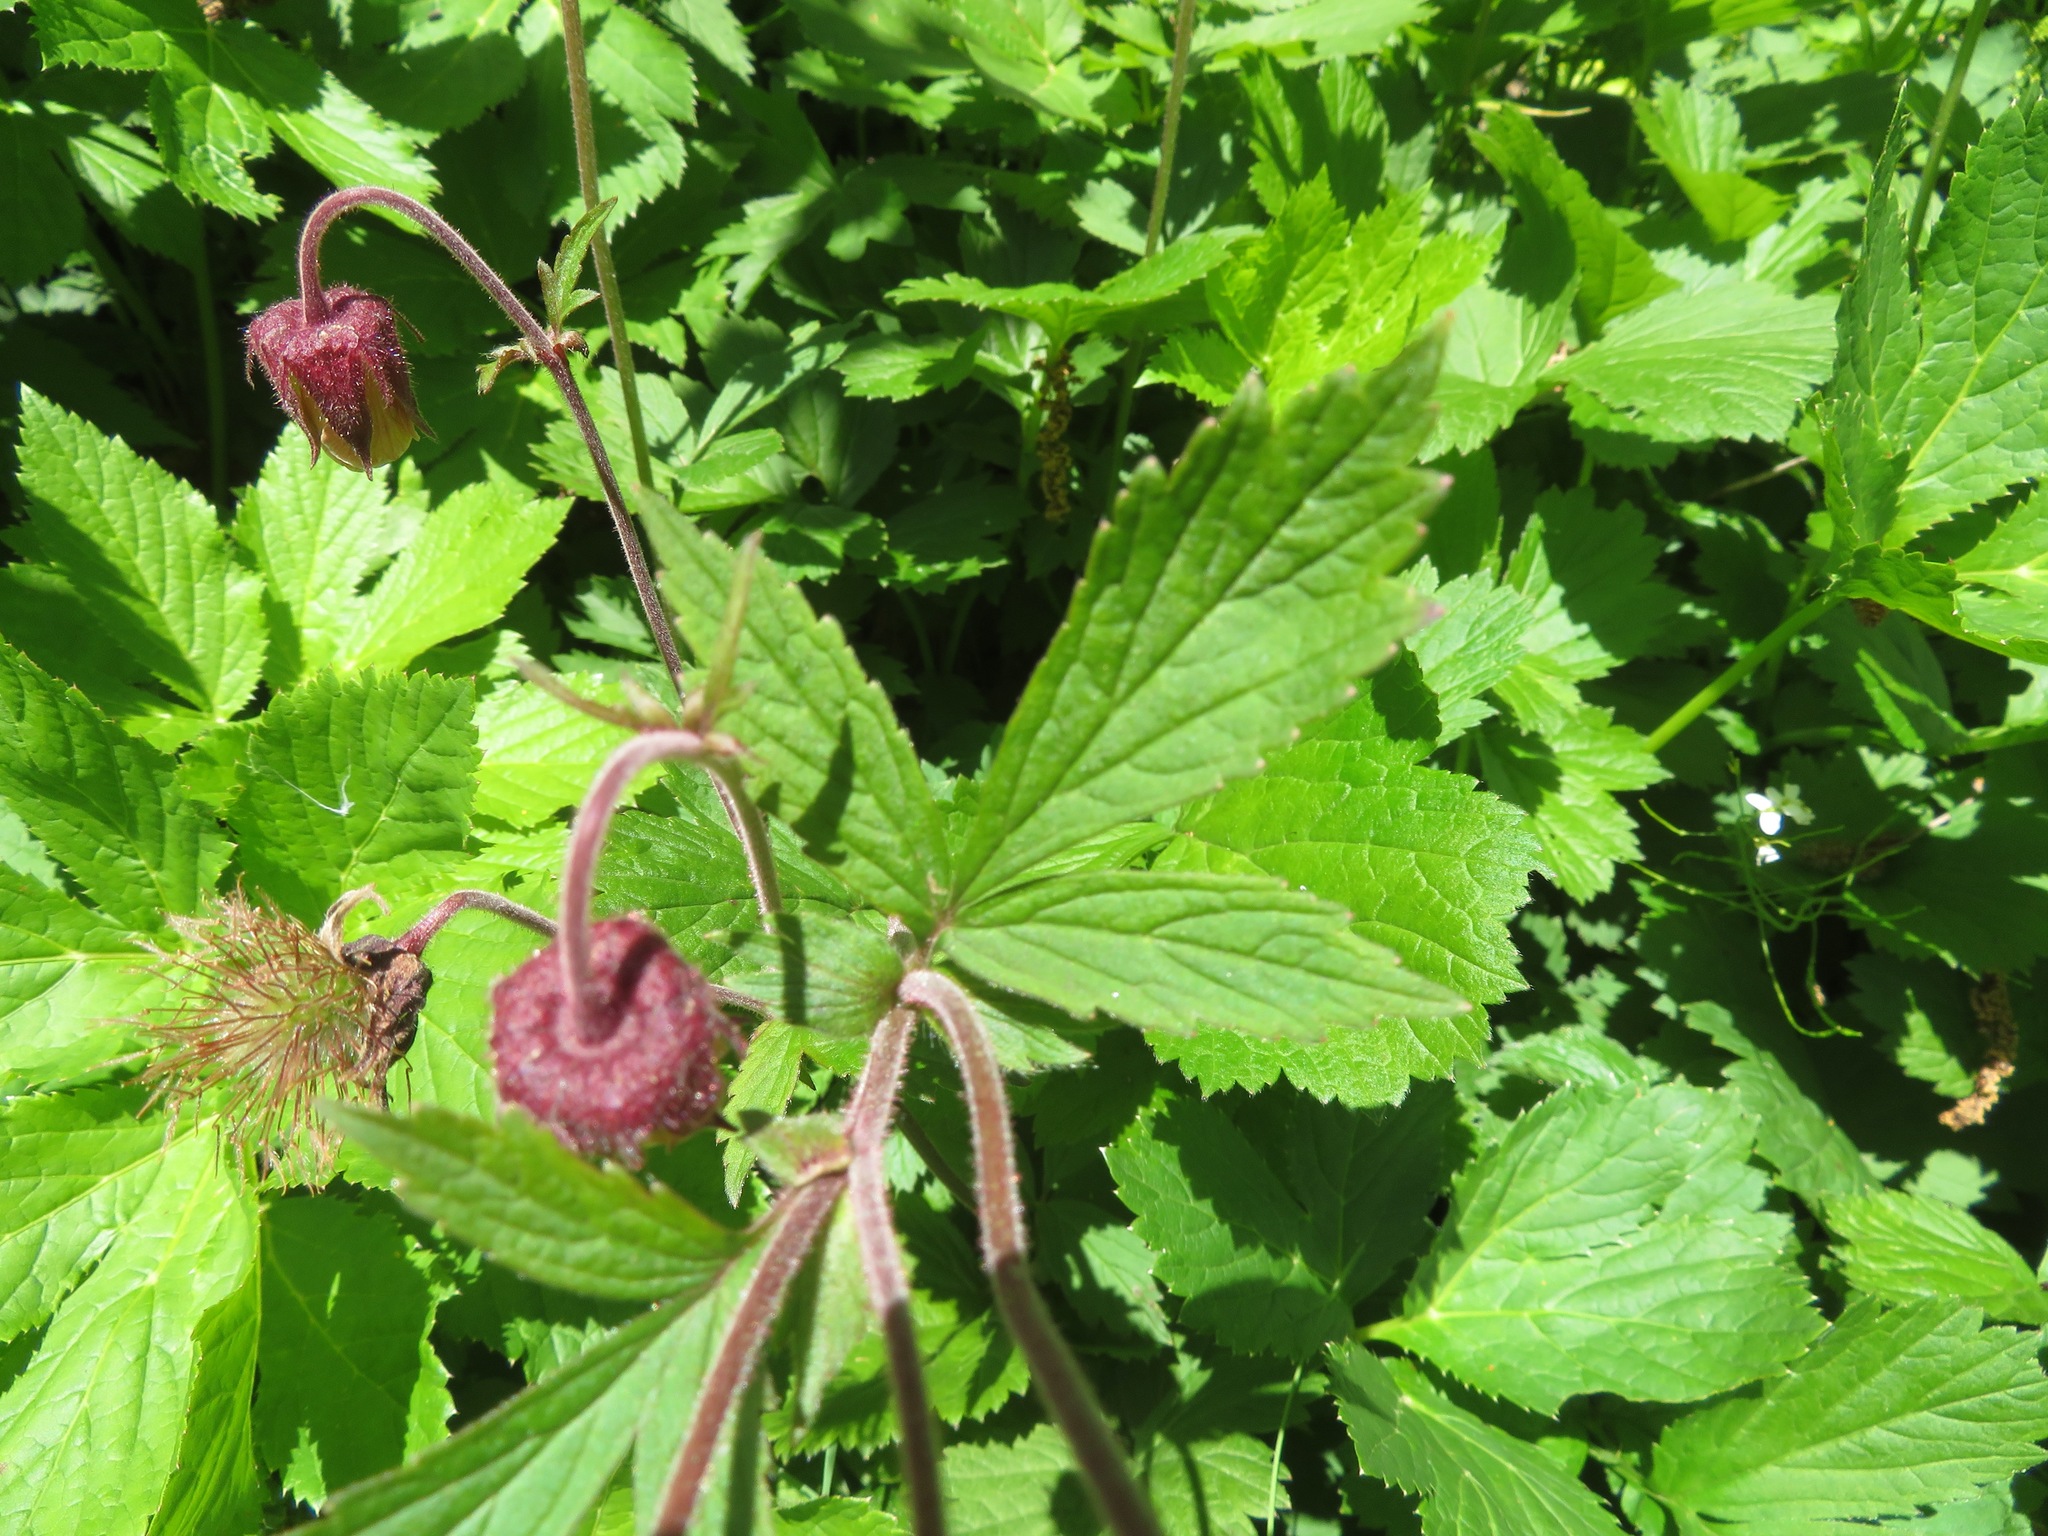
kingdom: Plantae
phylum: Tracheophyta
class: Magnoliopsida
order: Rosales
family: Rosaceae
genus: Geum
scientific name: Geum rivale
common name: Water avens
